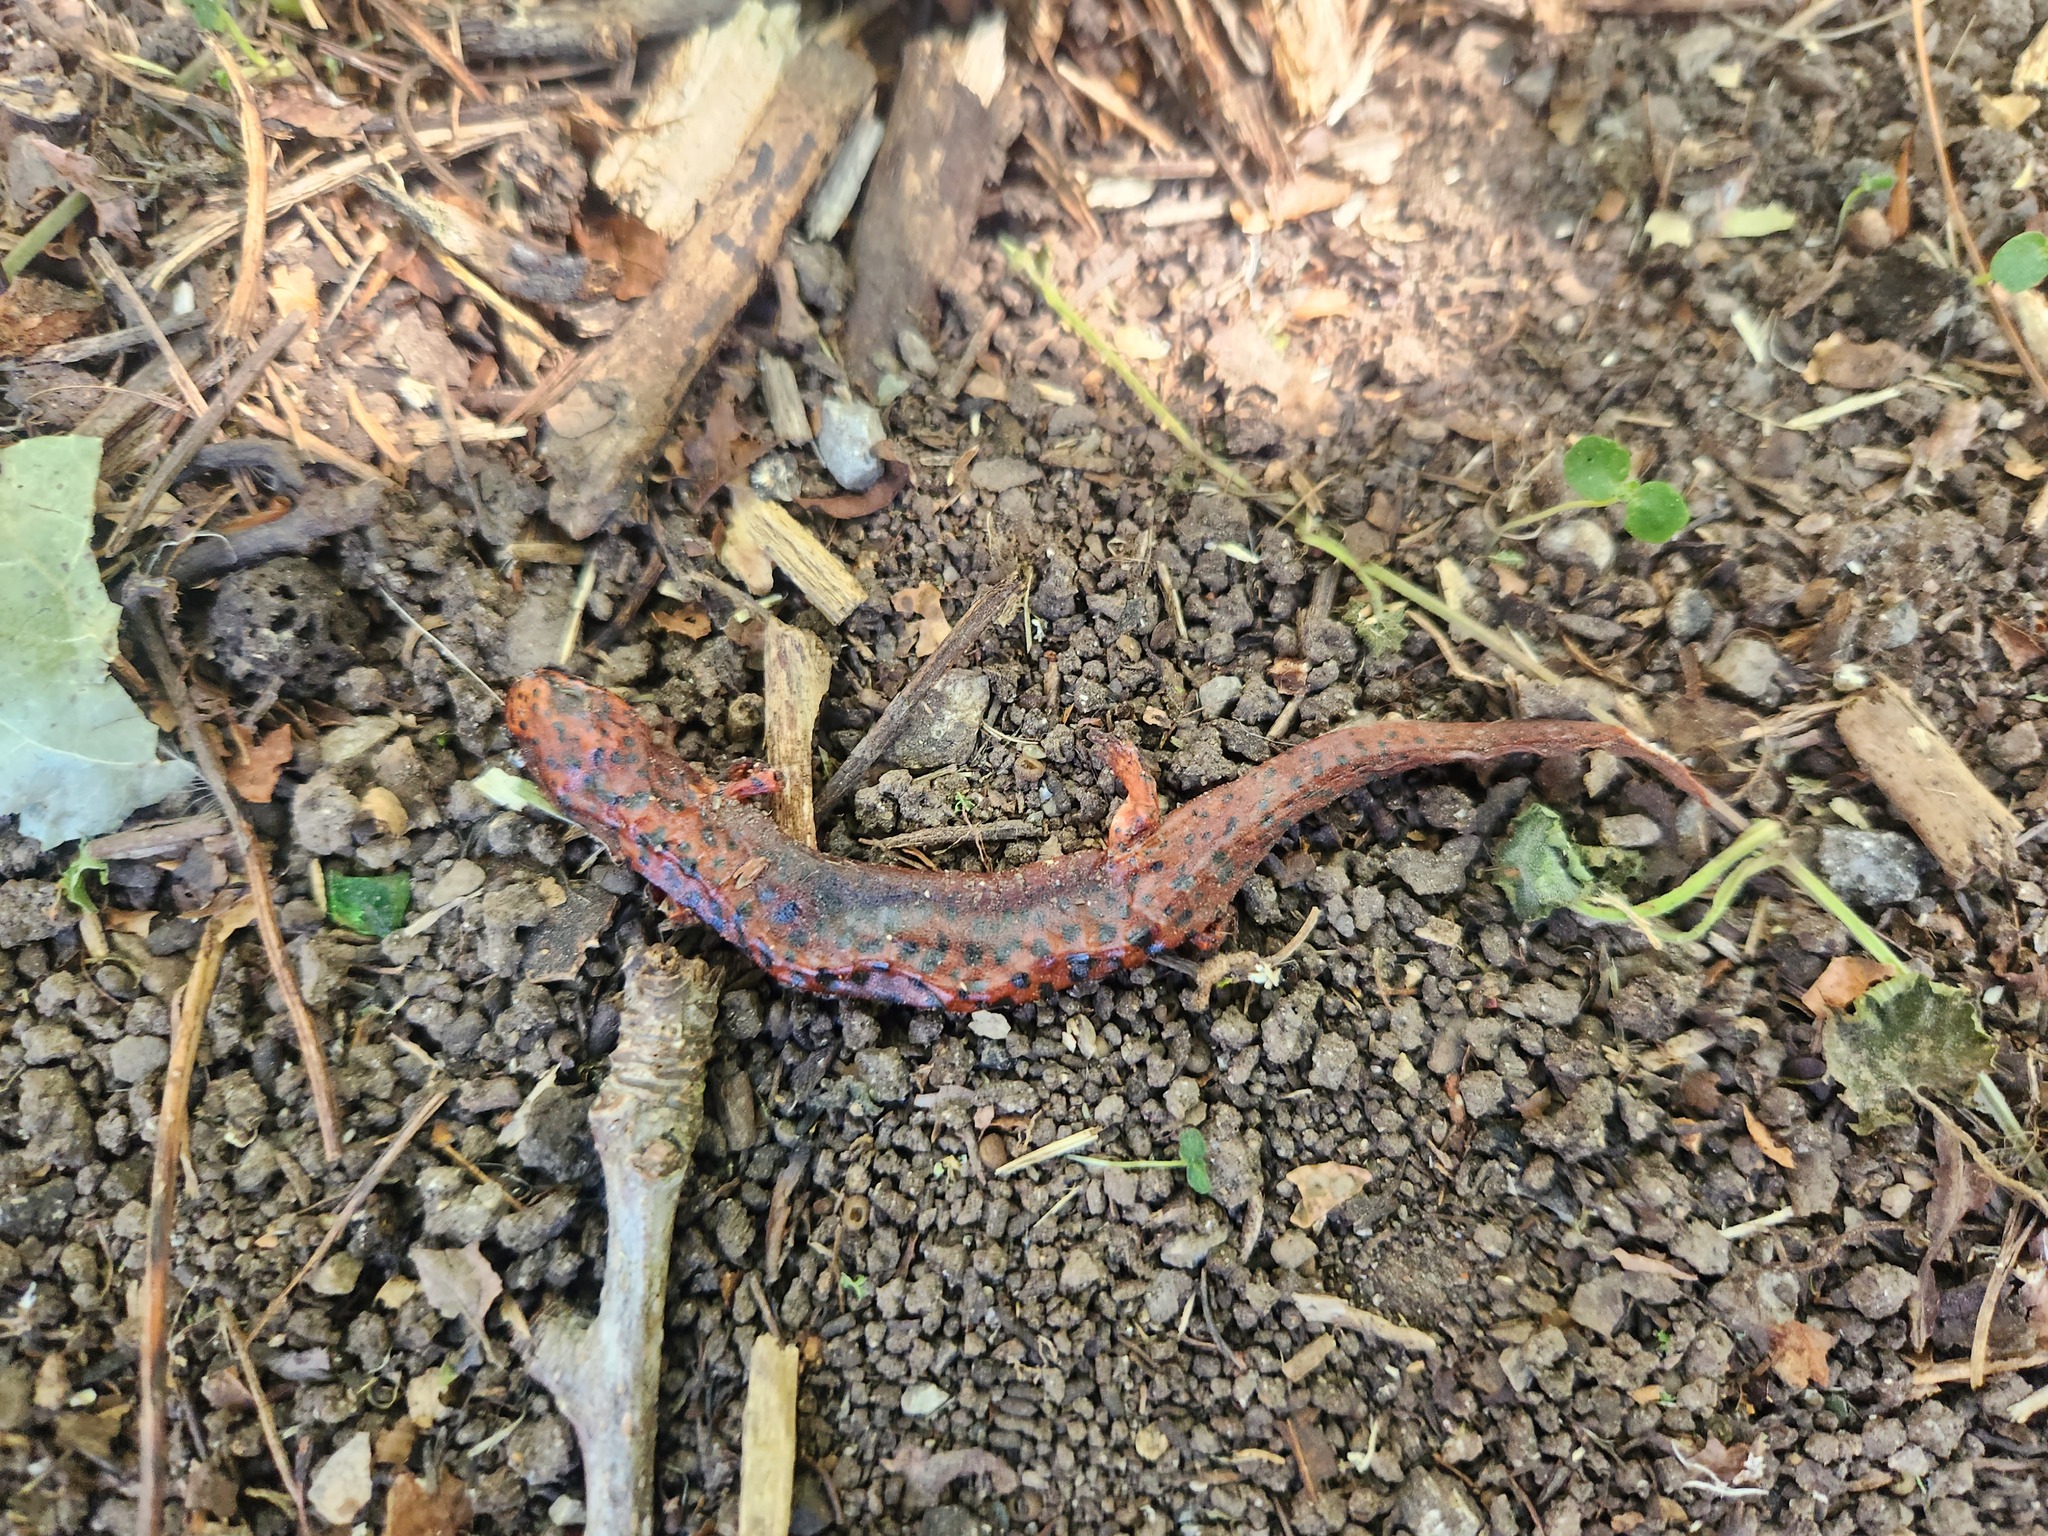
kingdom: Animalia
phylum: Chordata
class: Amphibia
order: Caudata
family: Plethodontidae
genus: Pseudotriton
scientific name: Pseudotriton ruber
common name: Red salamander
